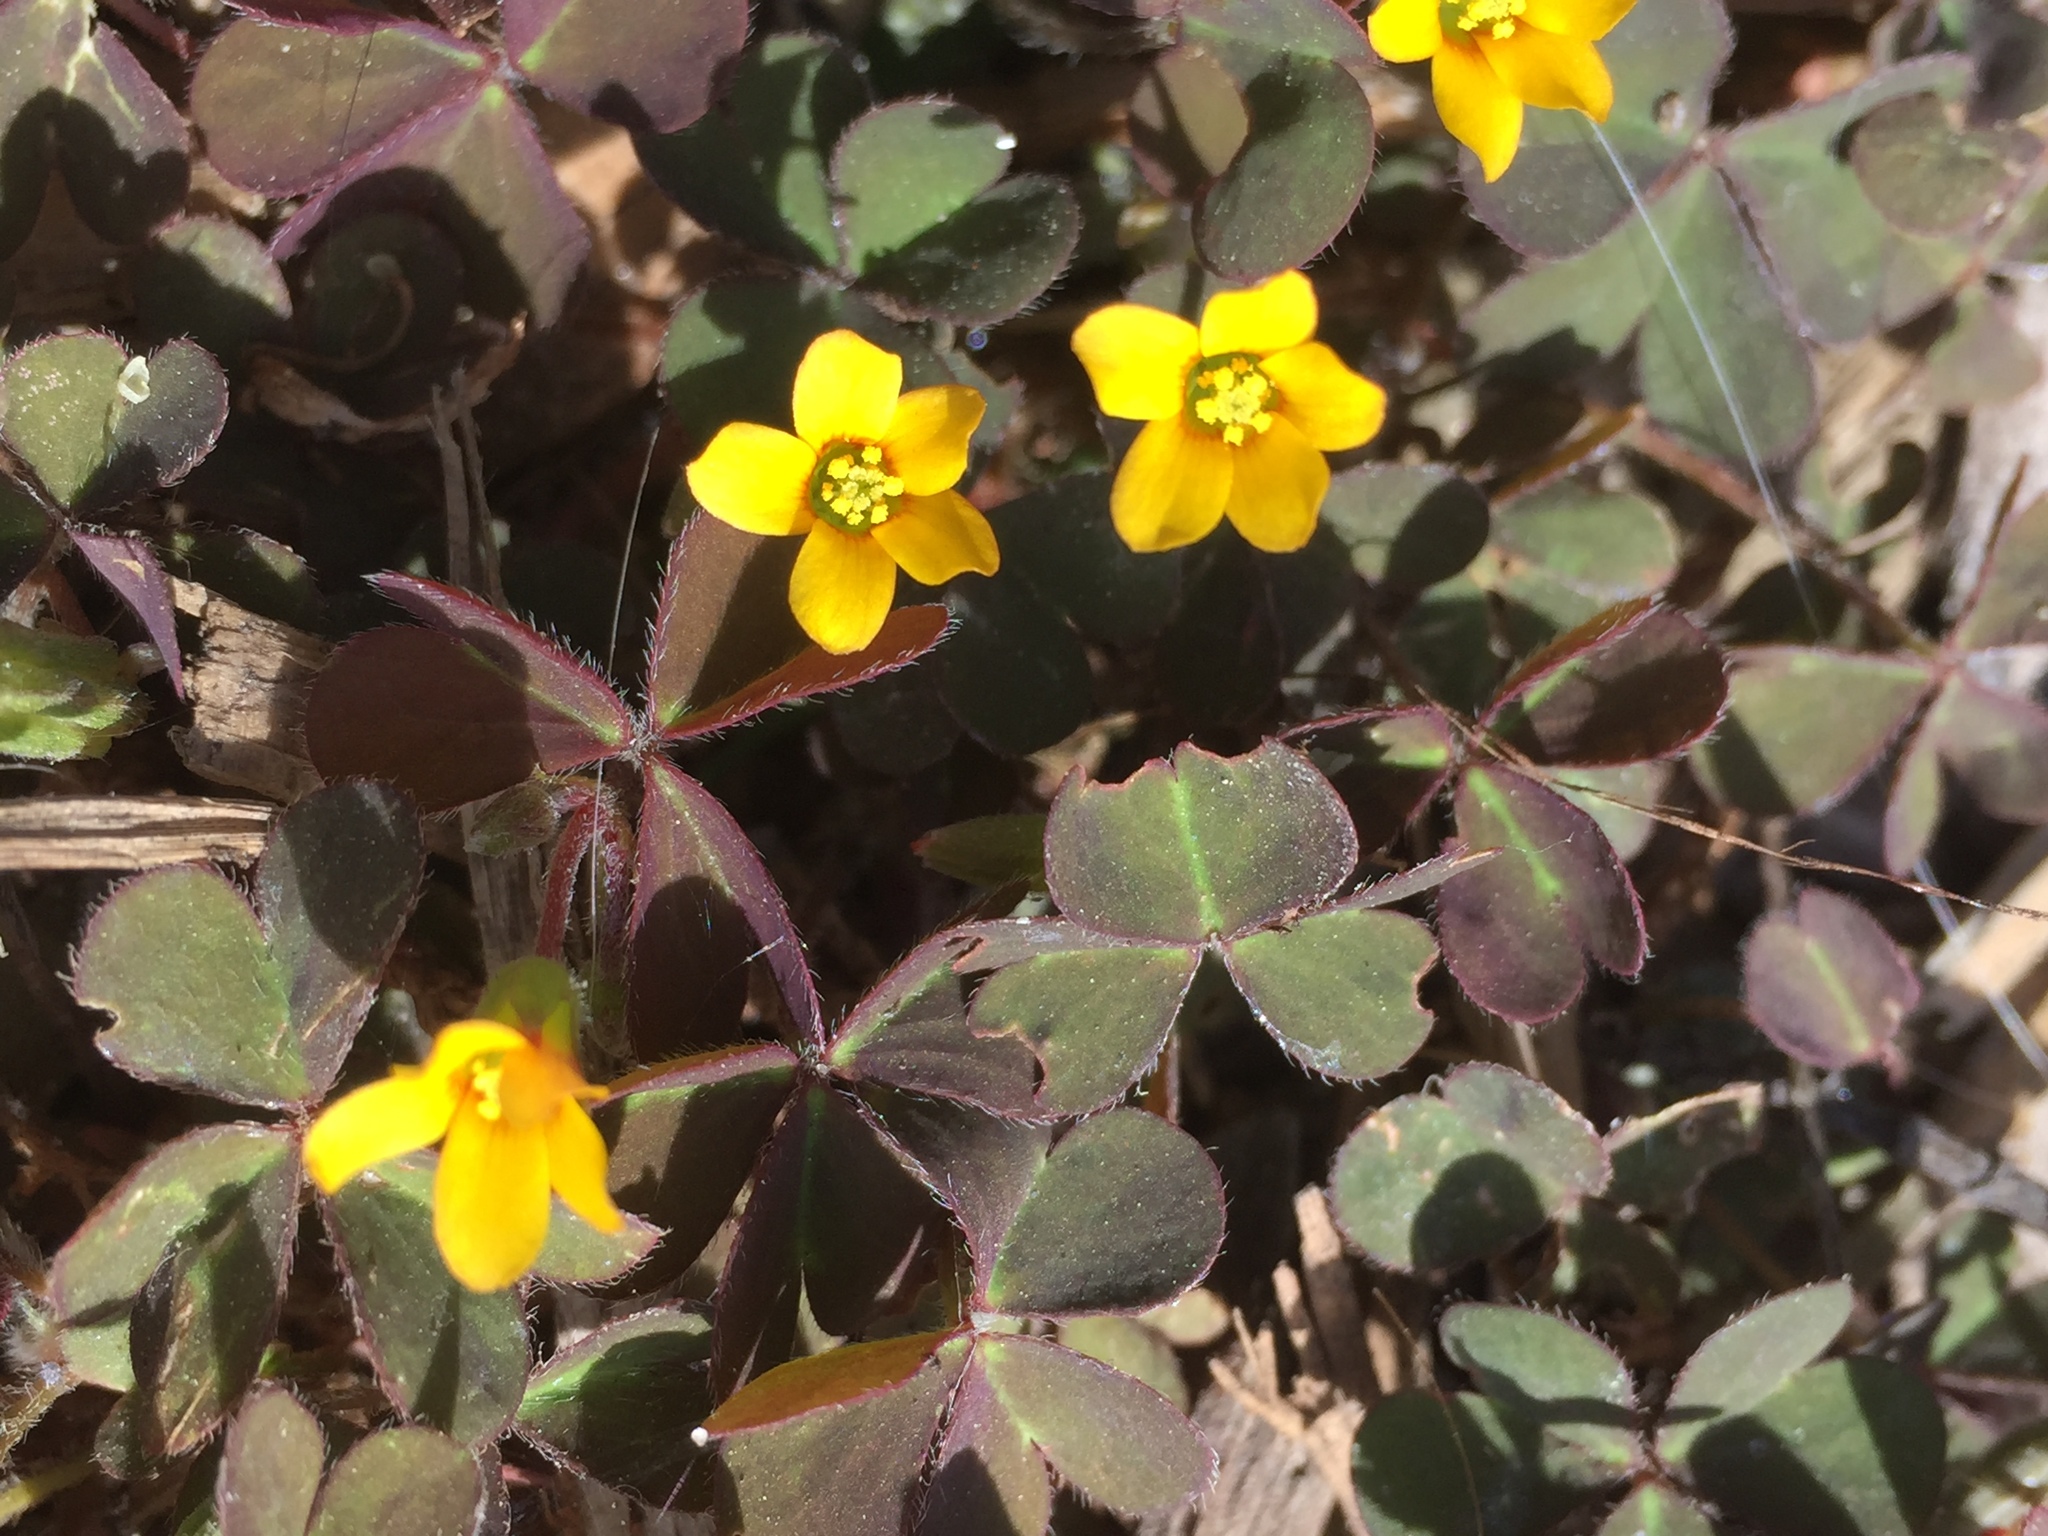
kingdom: Plantae
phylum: Tracheophyta
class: Magnoliopsida
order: Oxalidales
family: Oxalidaceae
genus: Oxalis
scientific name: Oxalis corniculata
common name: Procumbent yellow-sorrel
